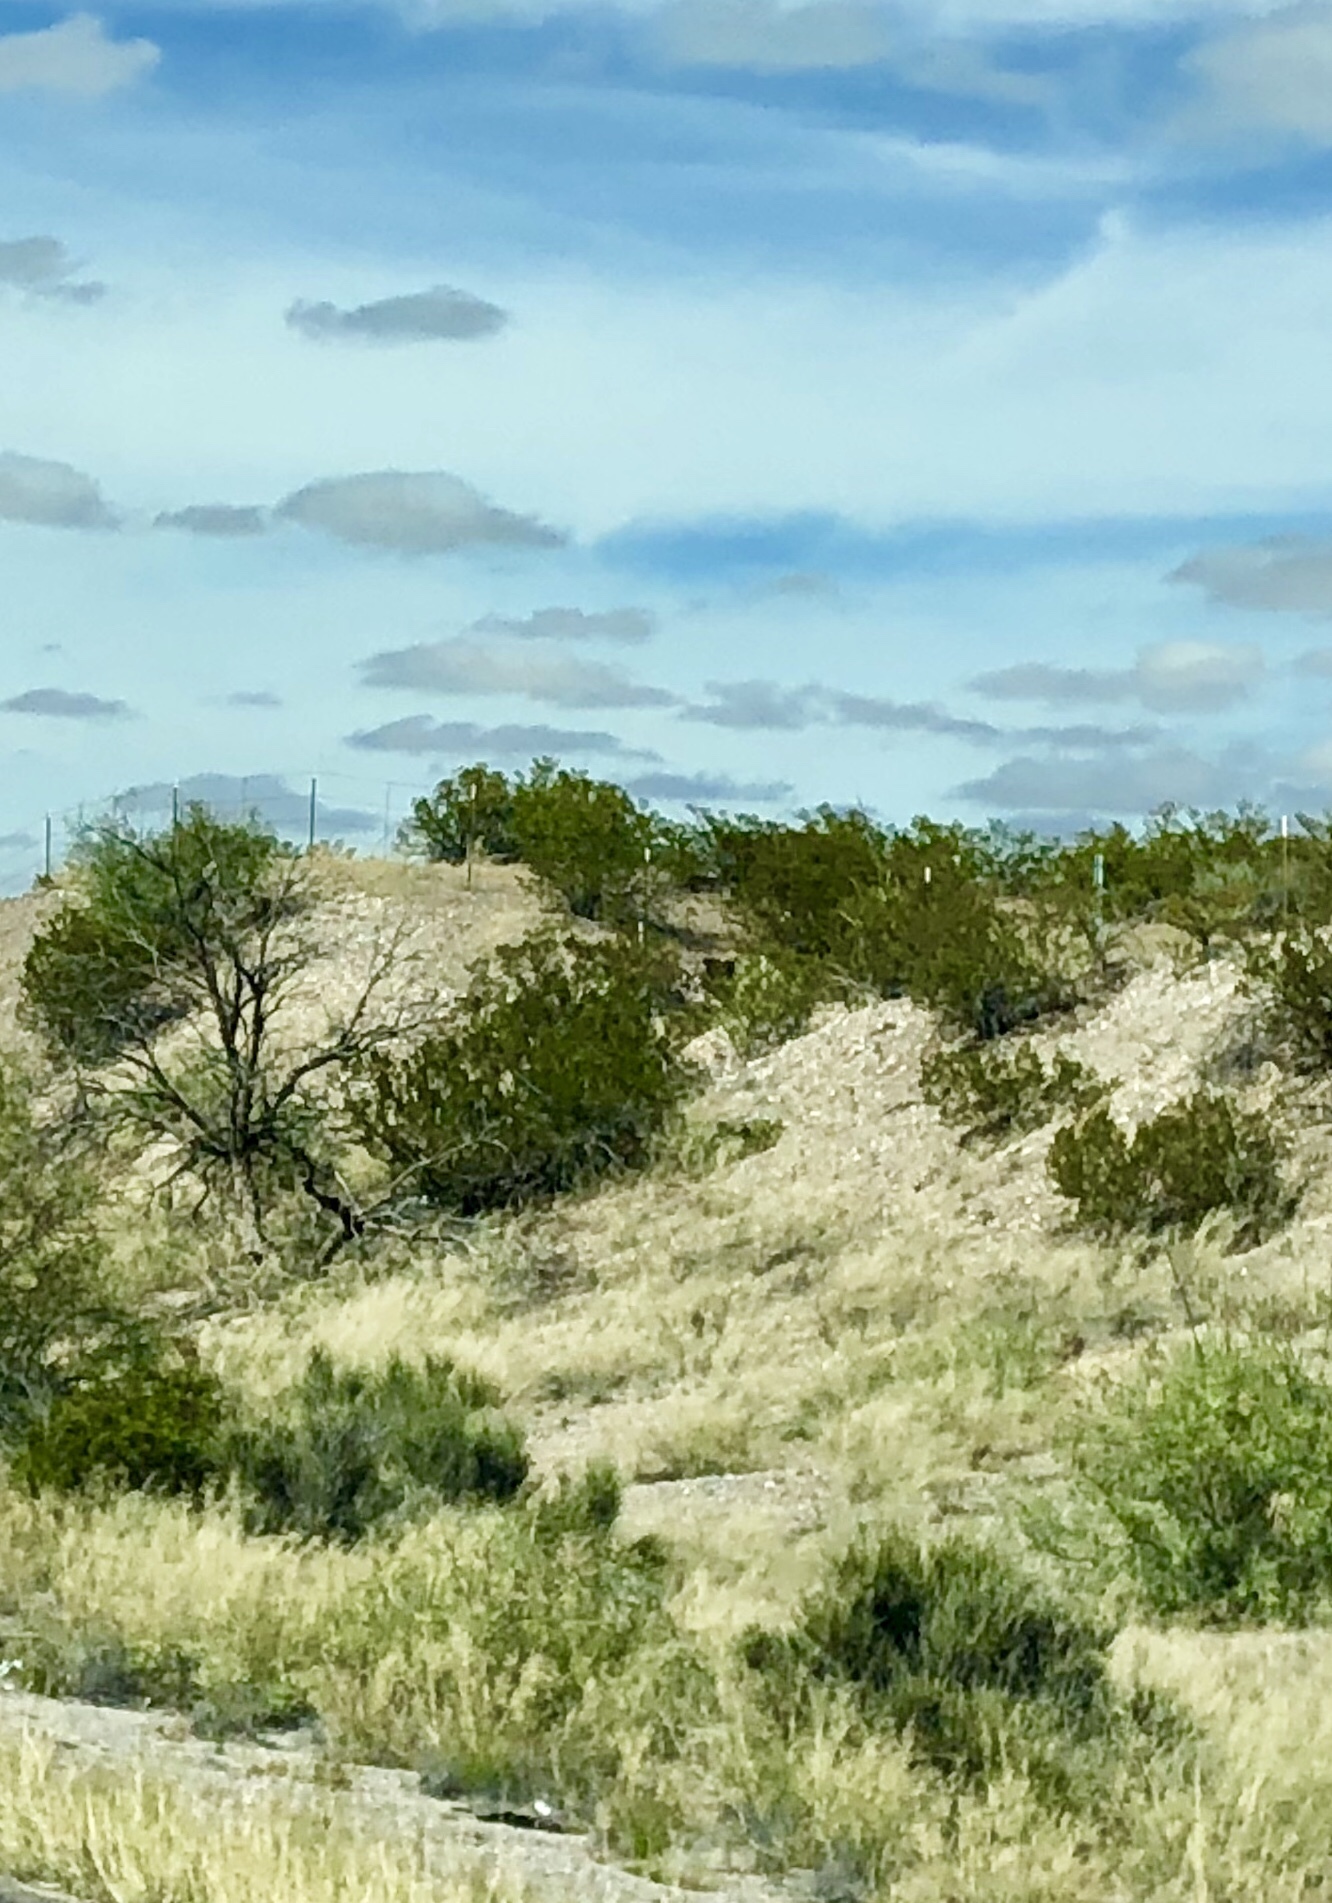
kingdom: Plantae
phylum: Tracheophyta
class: Magnoliopsida
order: Zygophyllales
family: Zygophyllaceae
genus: Larrea
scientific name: Larrea tridentata
